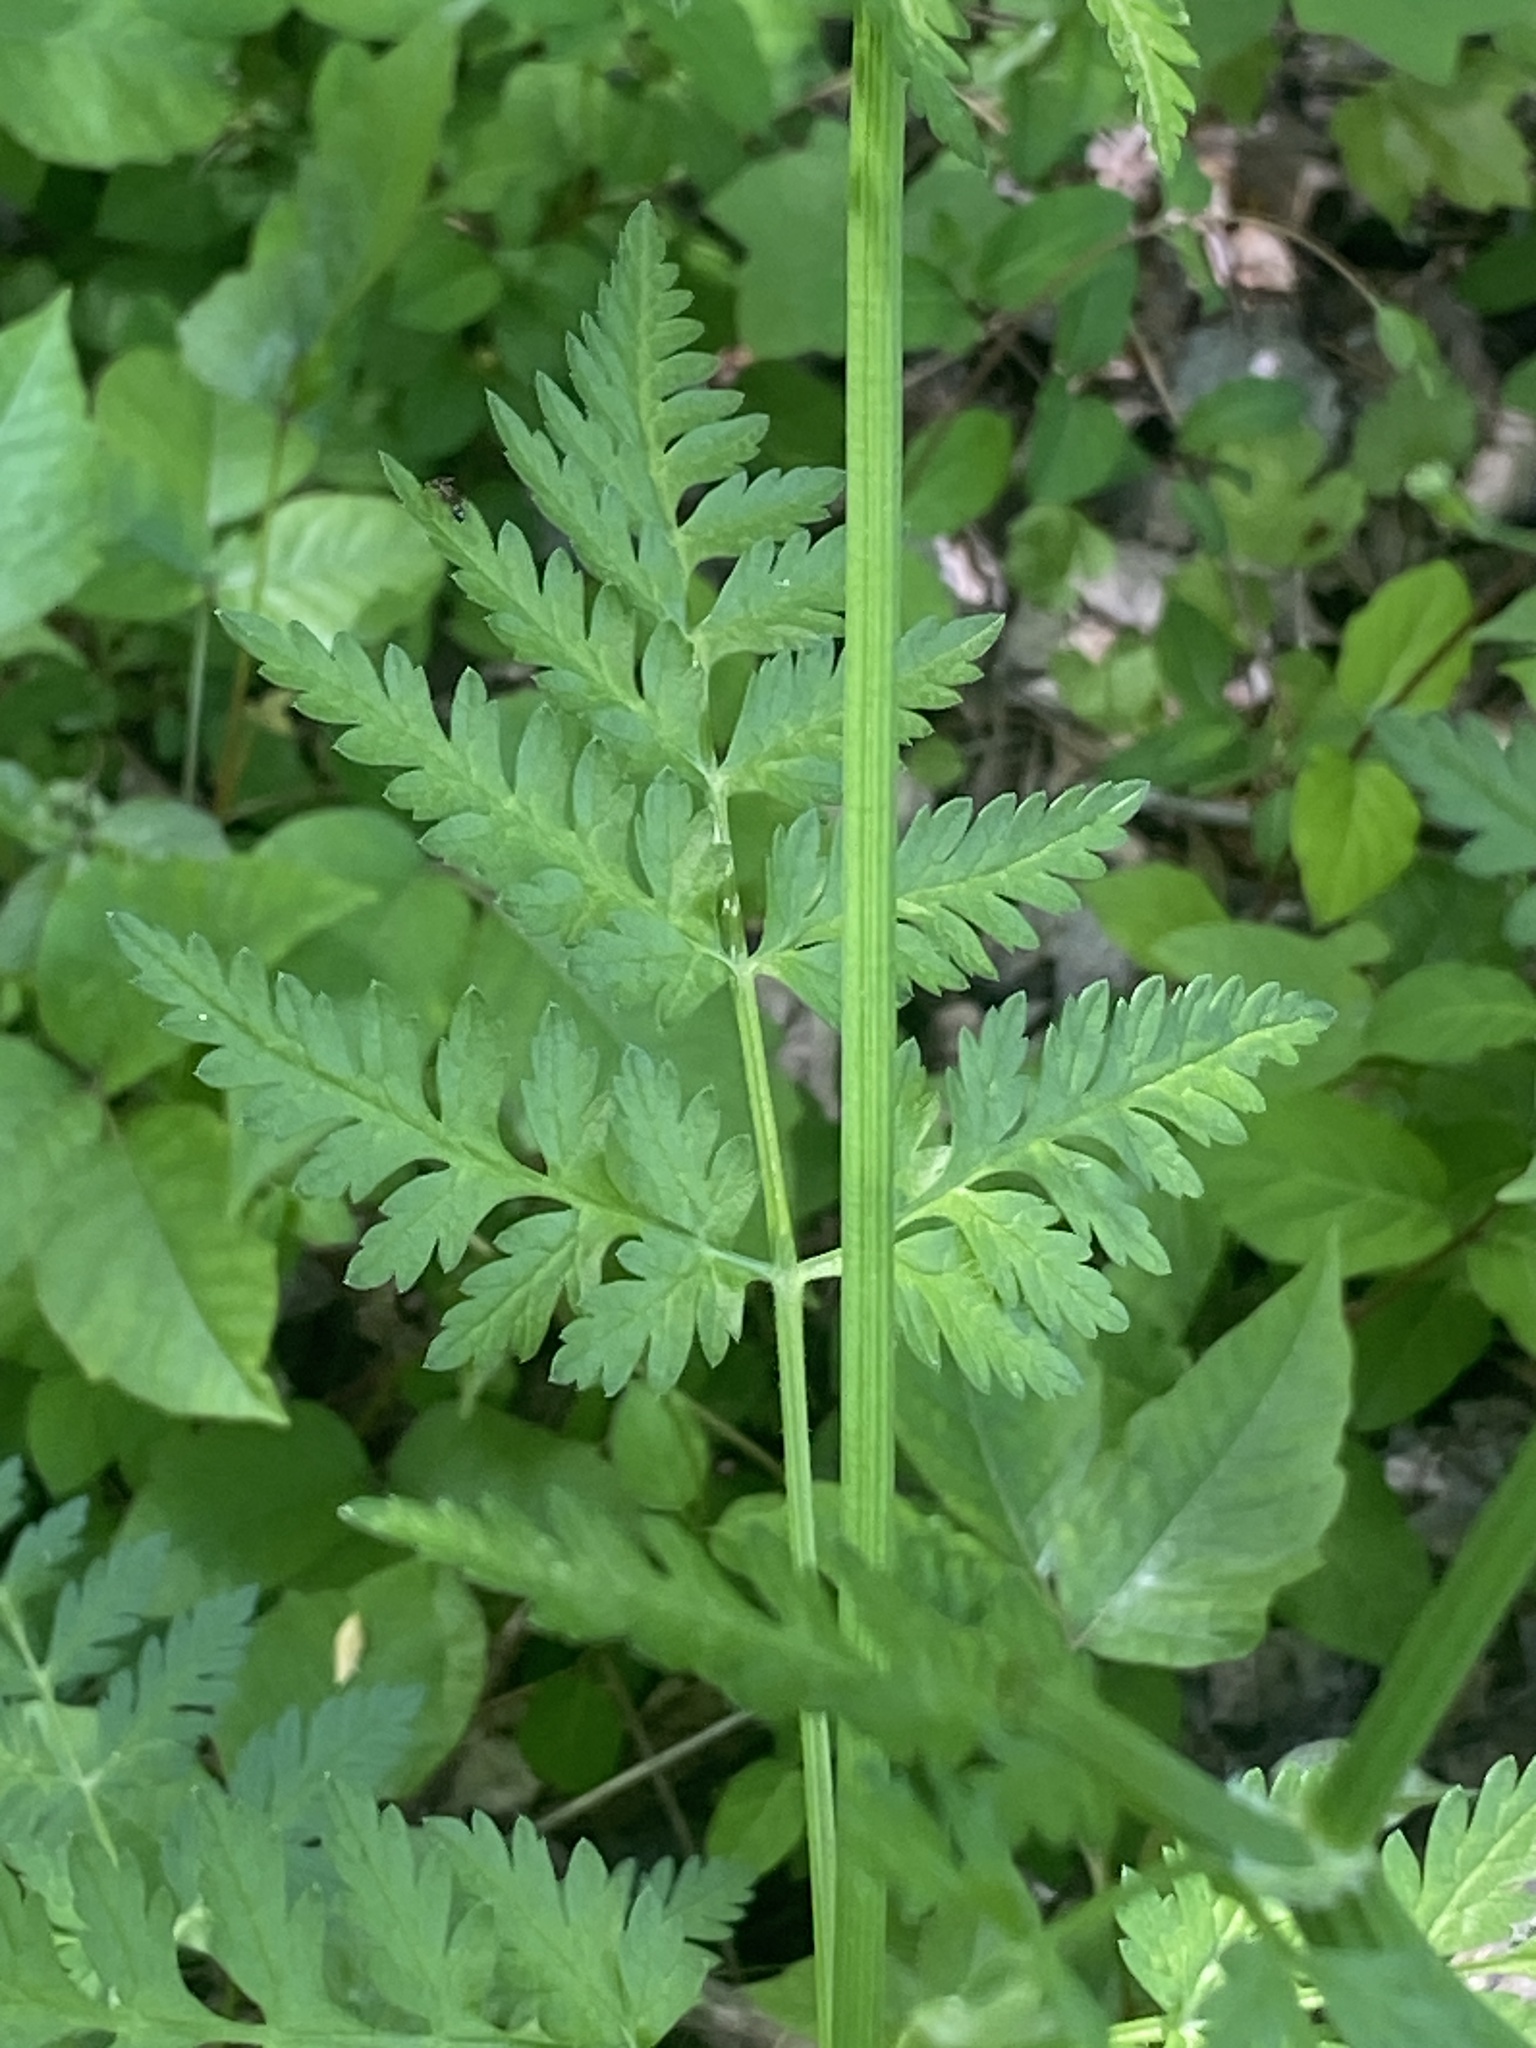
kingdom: Plantae
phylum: Tracheophyta
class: Magnoliopsida
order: Apiales
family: Apiaceae
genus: Anthriscus
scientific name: Anthriscus sylvestris
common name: Cow parsley
